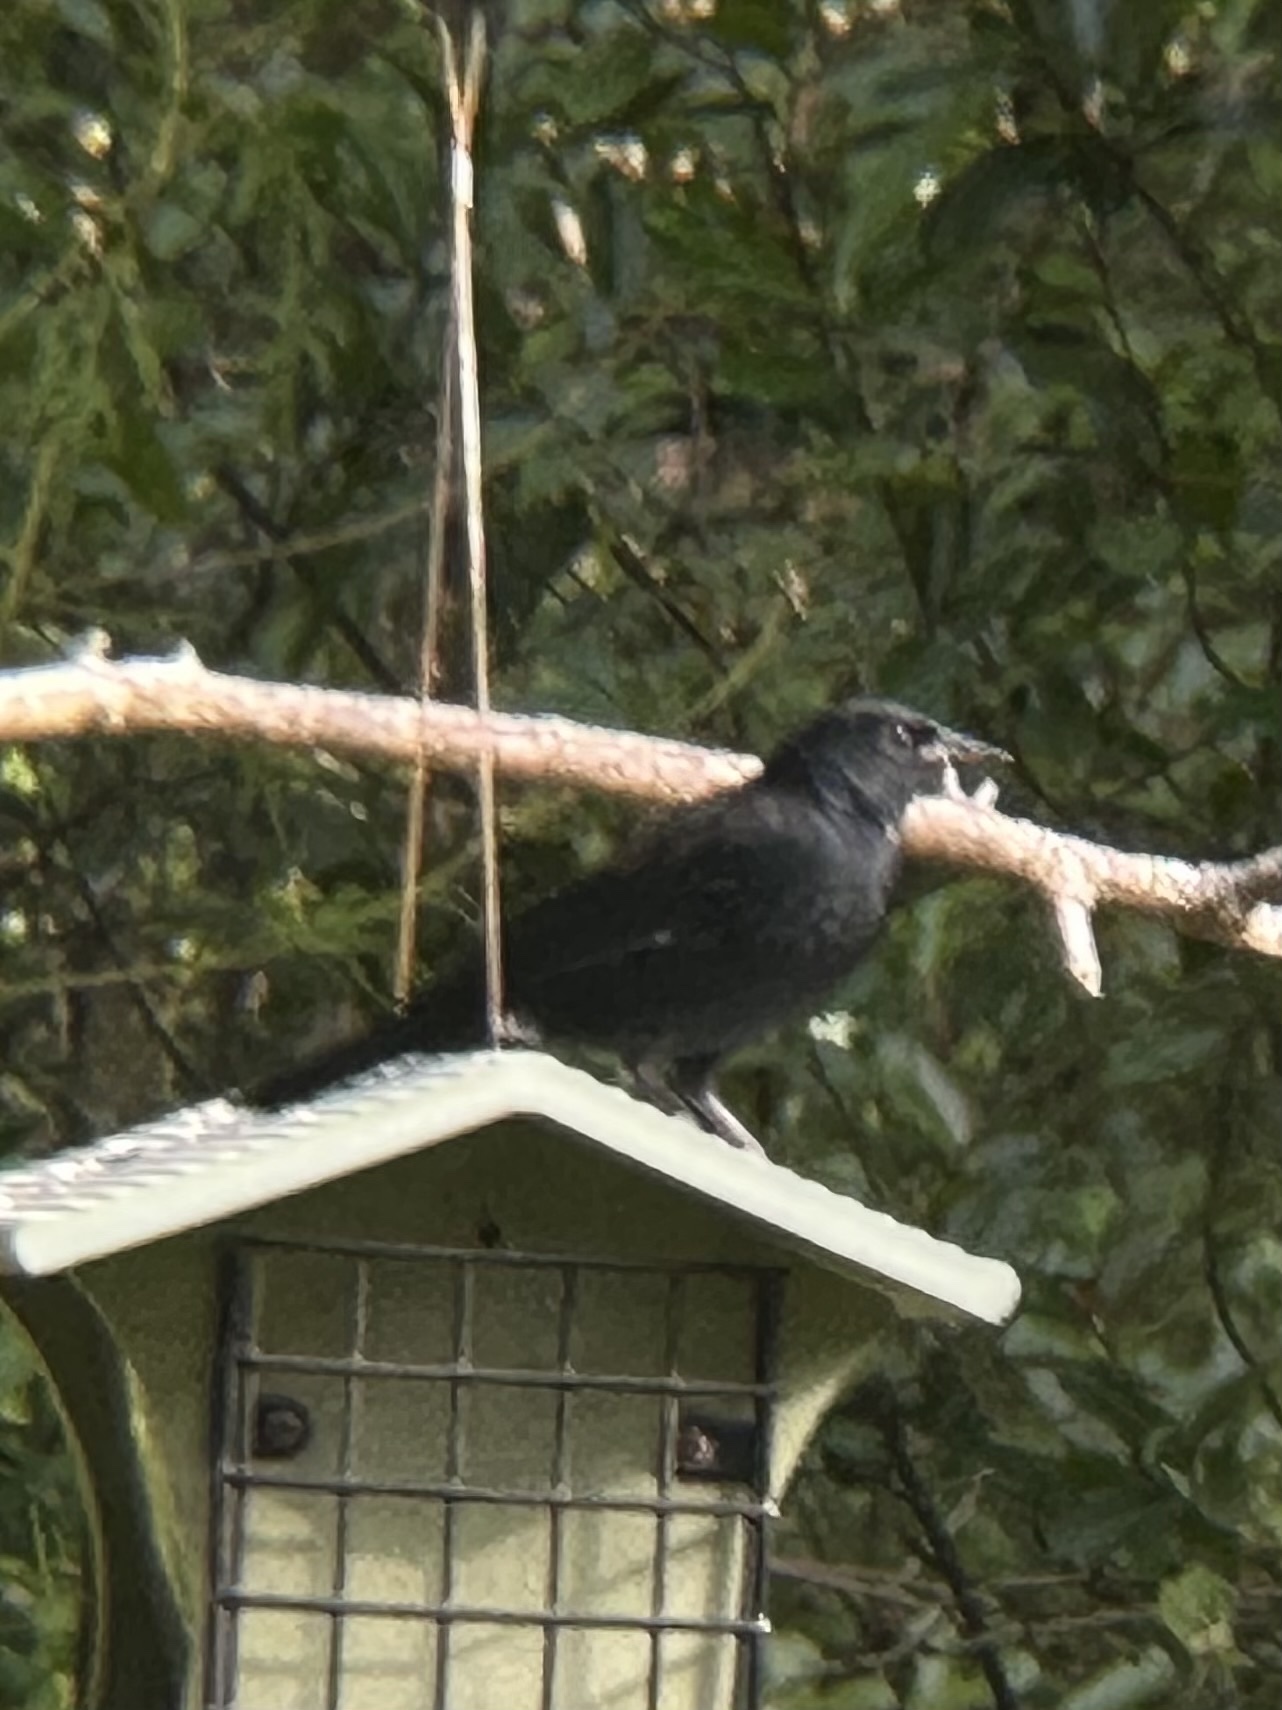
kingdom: Animalia
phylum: Chordata
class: Aves
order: Passeriformes
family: Corvidae
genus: Corvus
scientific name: Corvus
